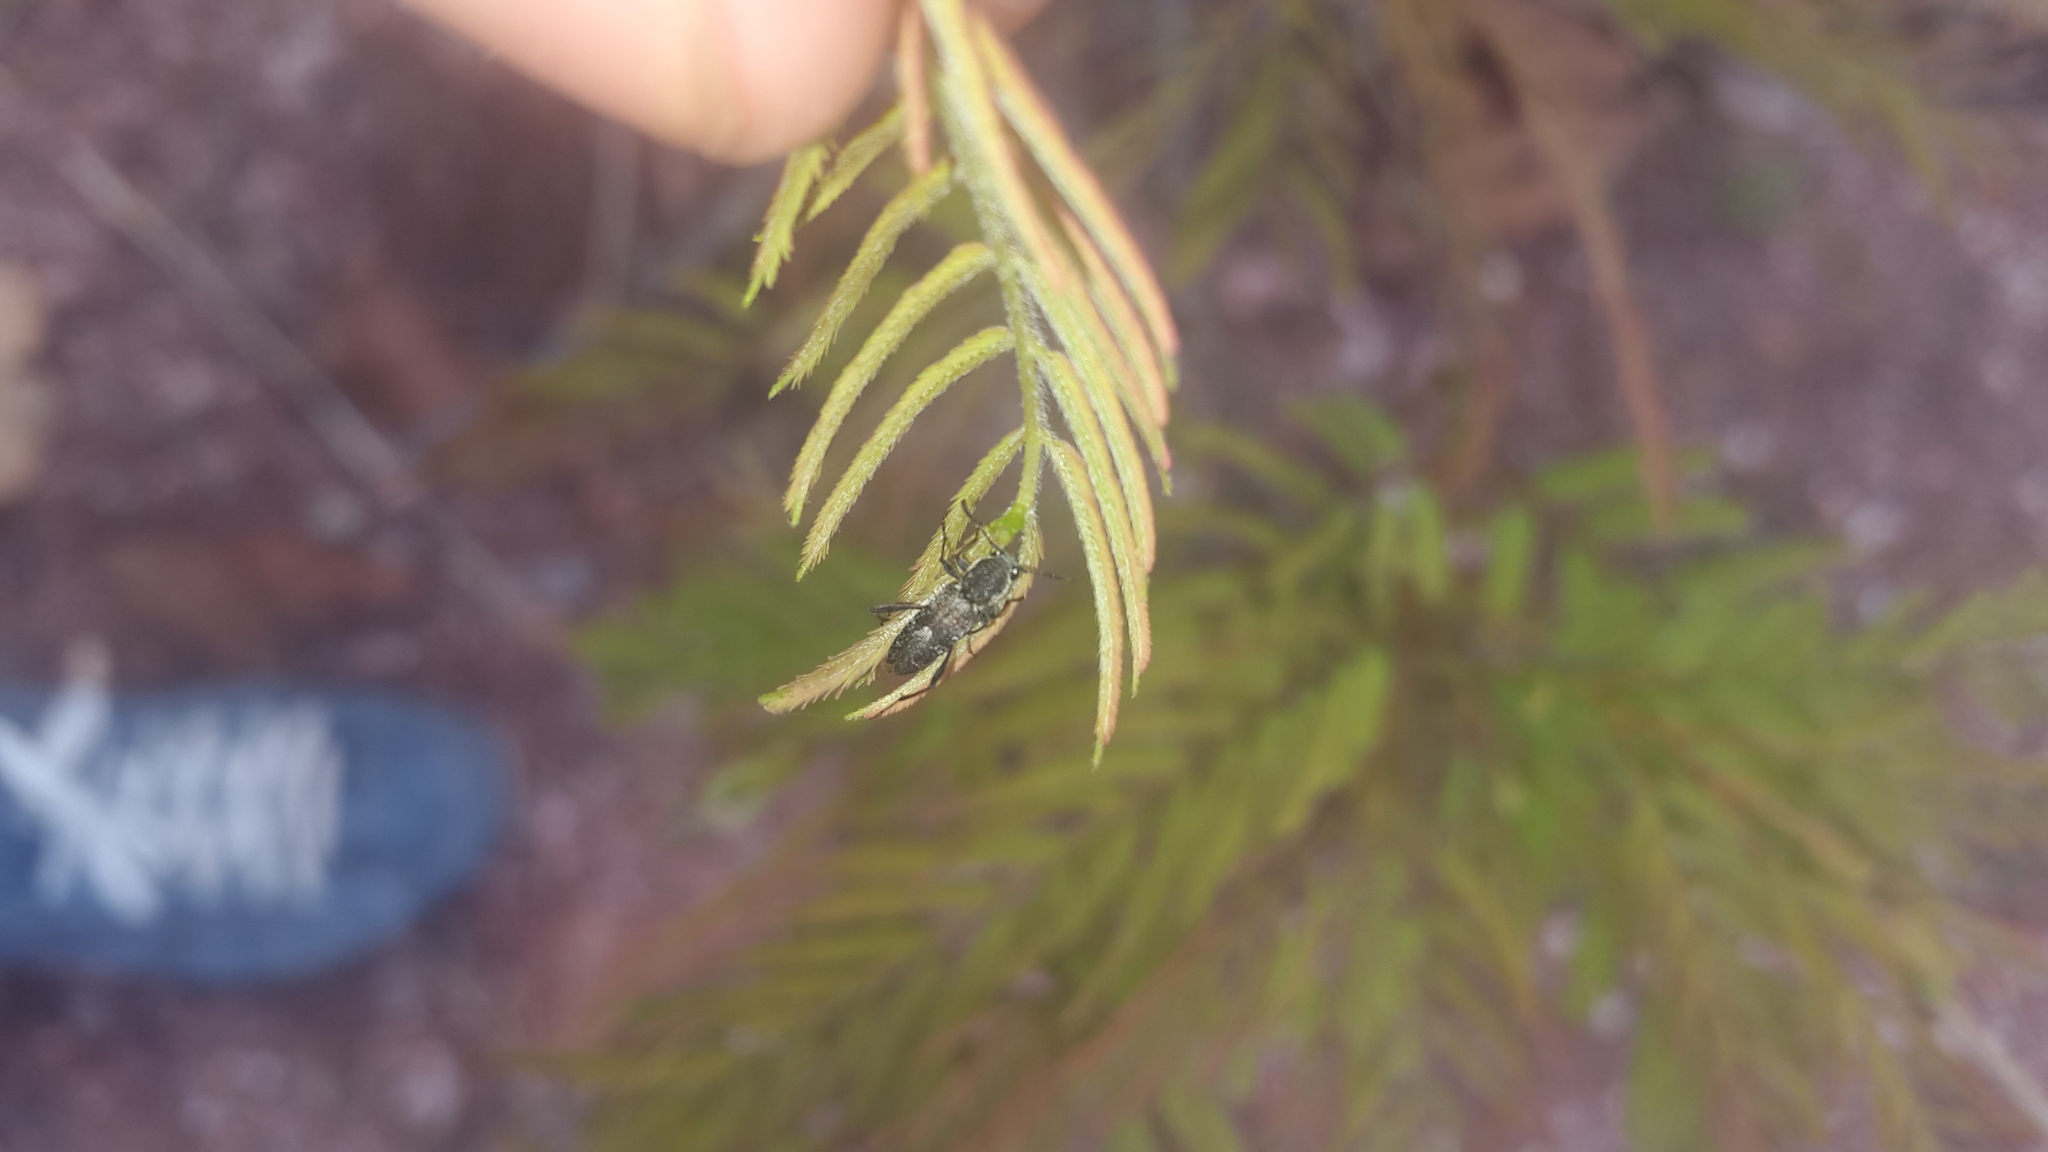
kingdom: Animalia
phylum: Arthropoda
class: Insecta
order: Coleoptera
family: Cerambycidae
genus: Neoclytus
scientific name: Neoclytus irroratus
